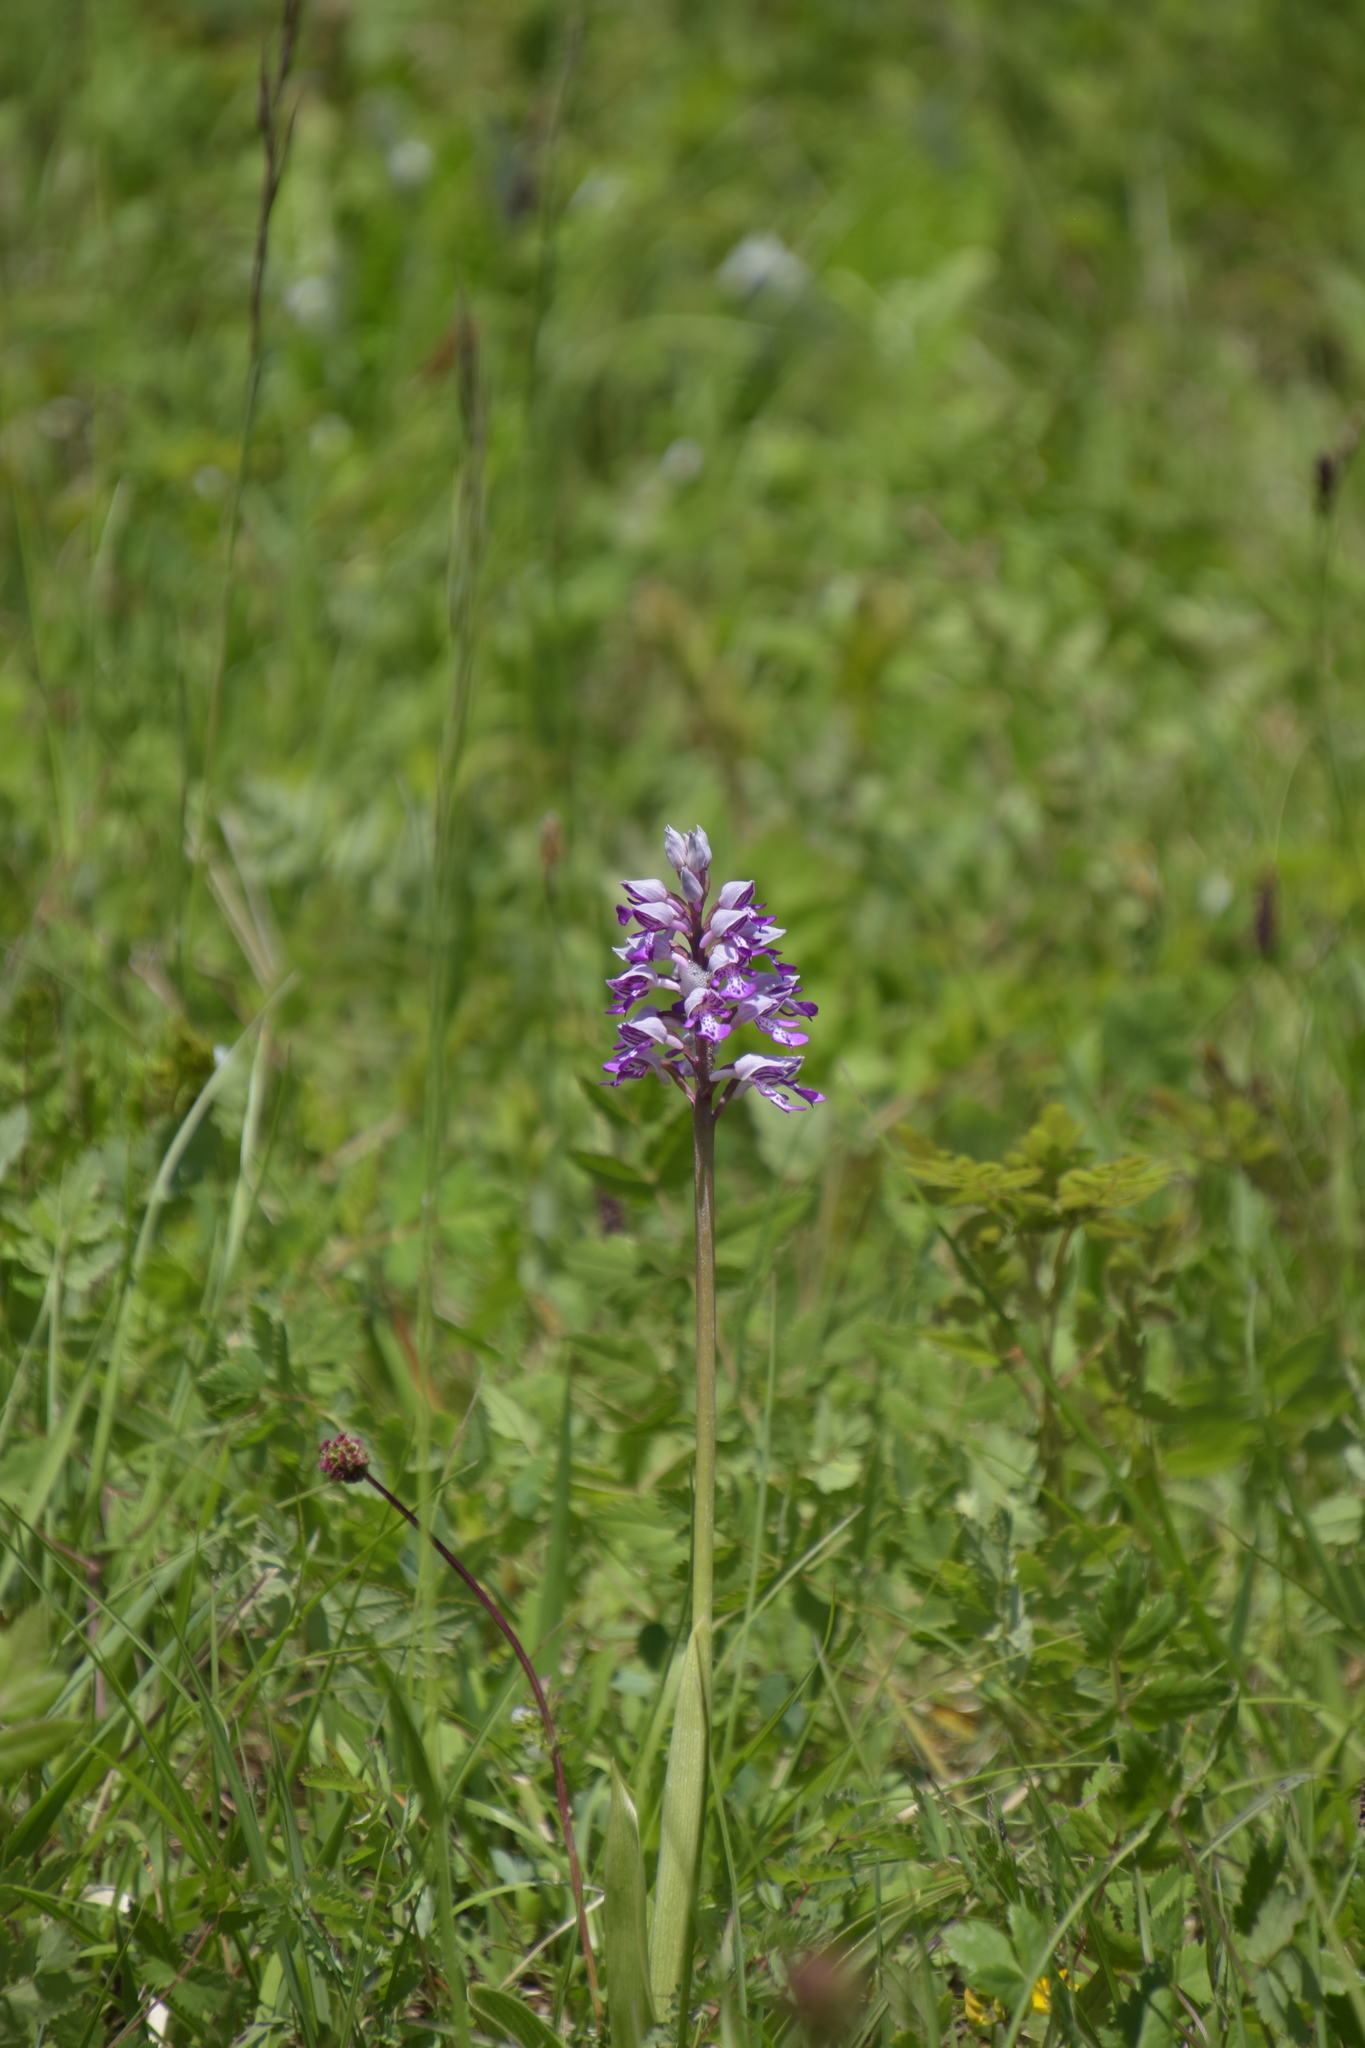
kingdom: Plantae
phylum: Tracheophyta
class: Liliopsida
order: Asparagales
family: Orchidaceae
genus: Orchis
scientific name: Orchis militaris
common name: Military orchid
